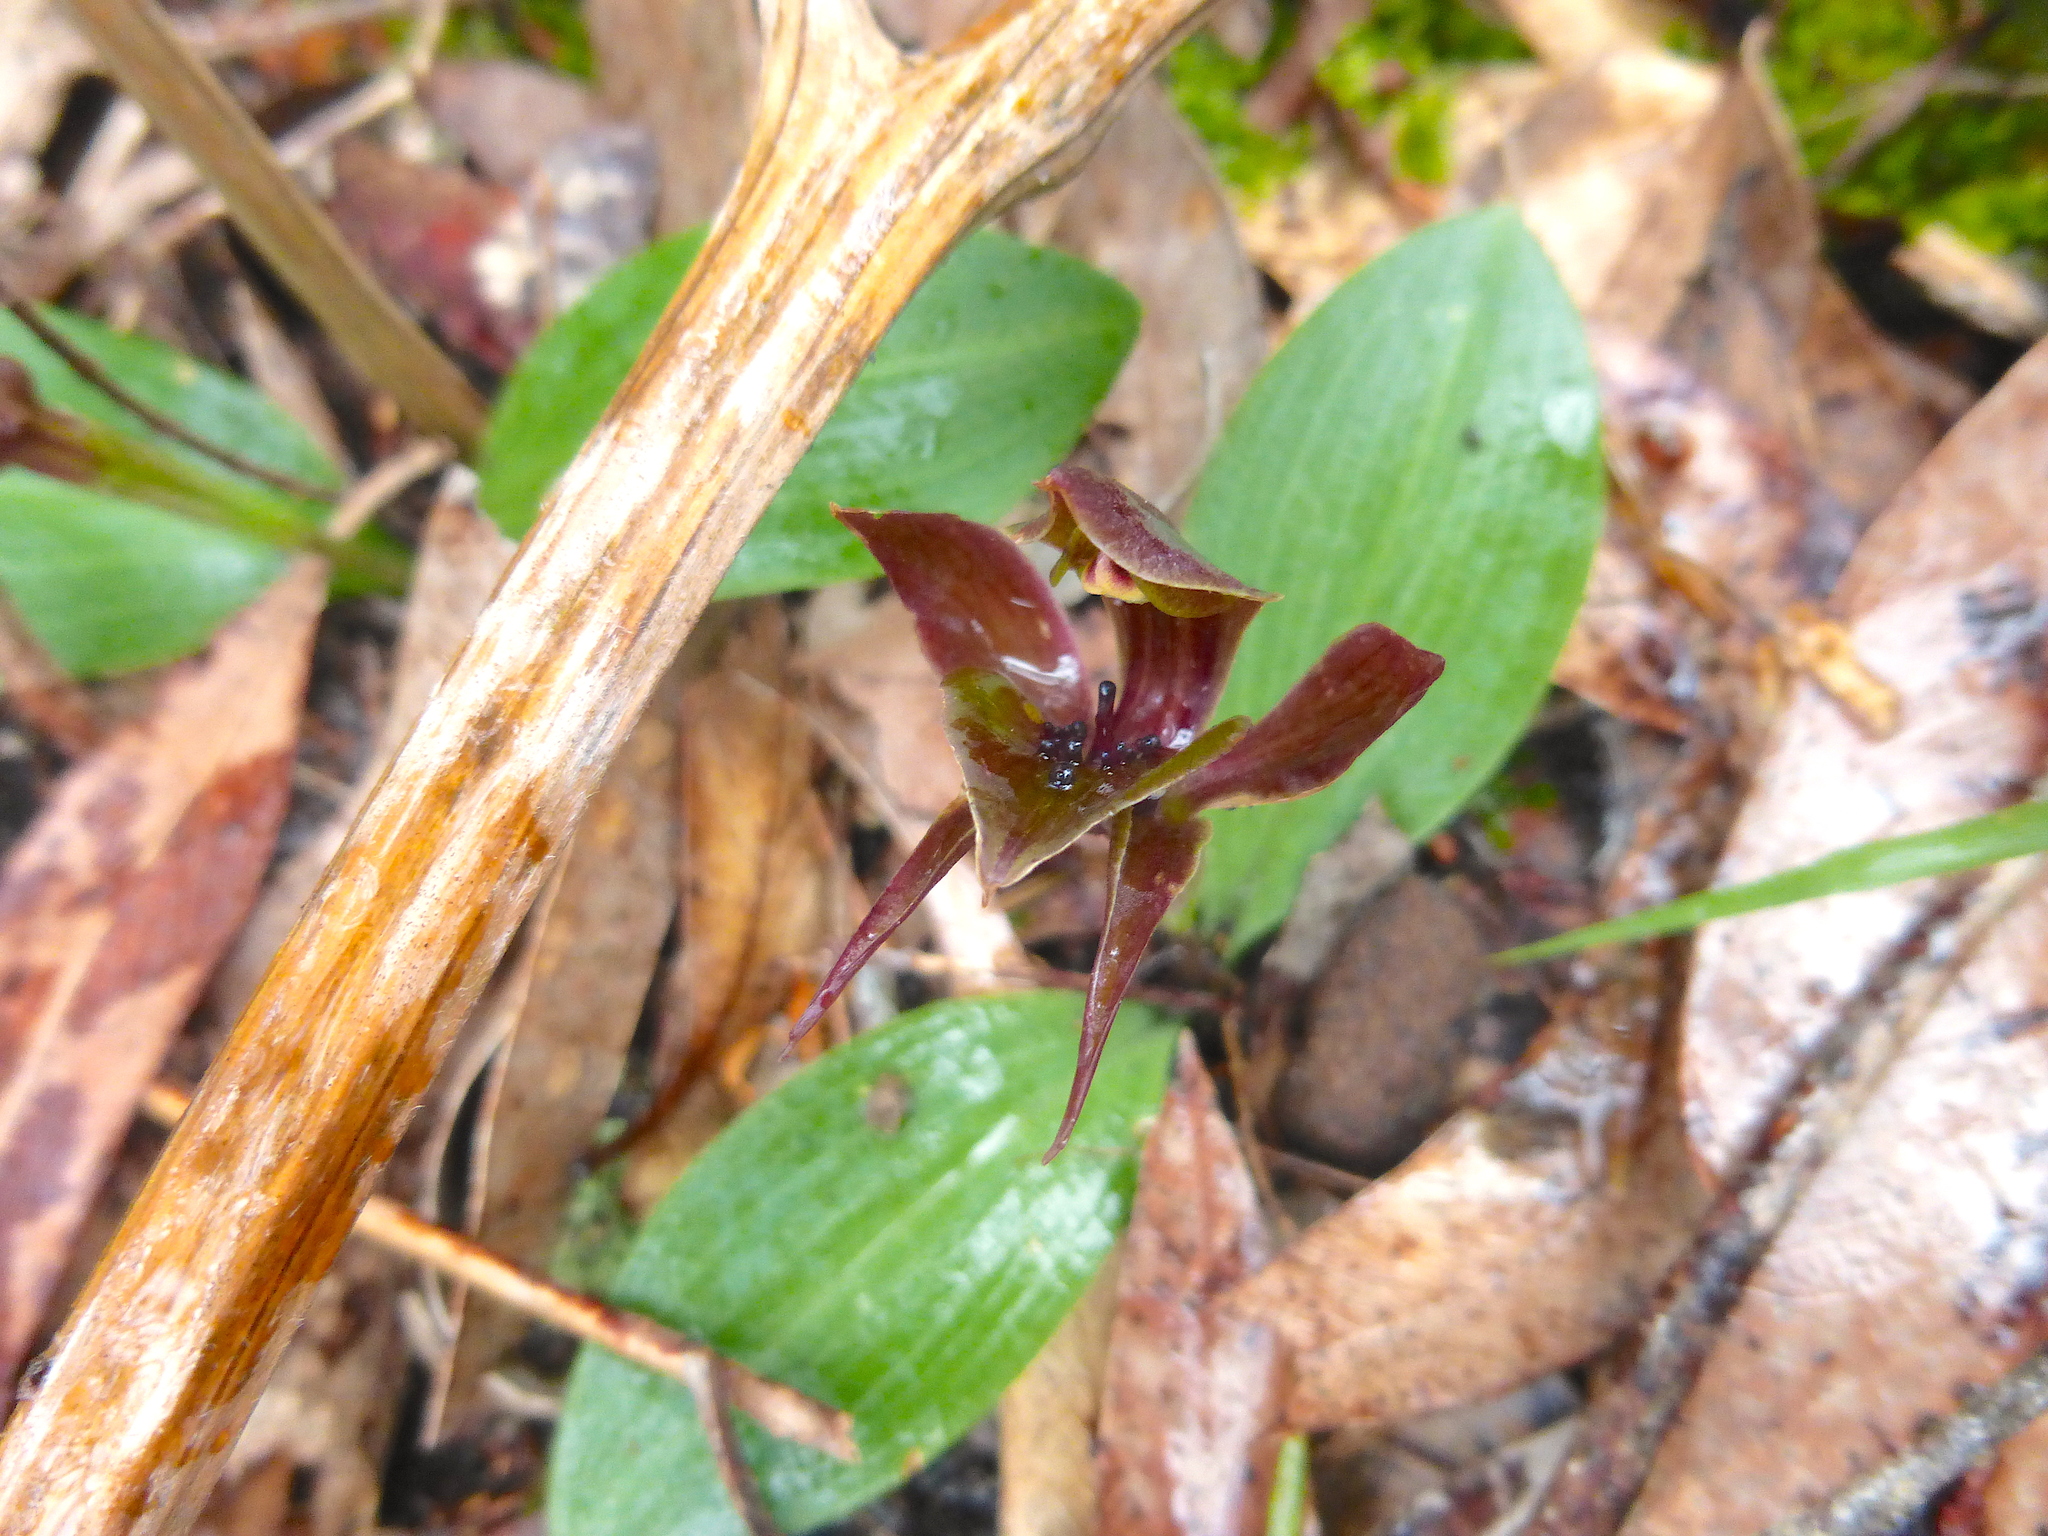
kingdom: Plantae
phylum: Tracheophyta
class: Liliopsida
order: Asparagales
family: Orchidaceae
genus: Chiloglottis
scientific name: Chiloglottis valida
